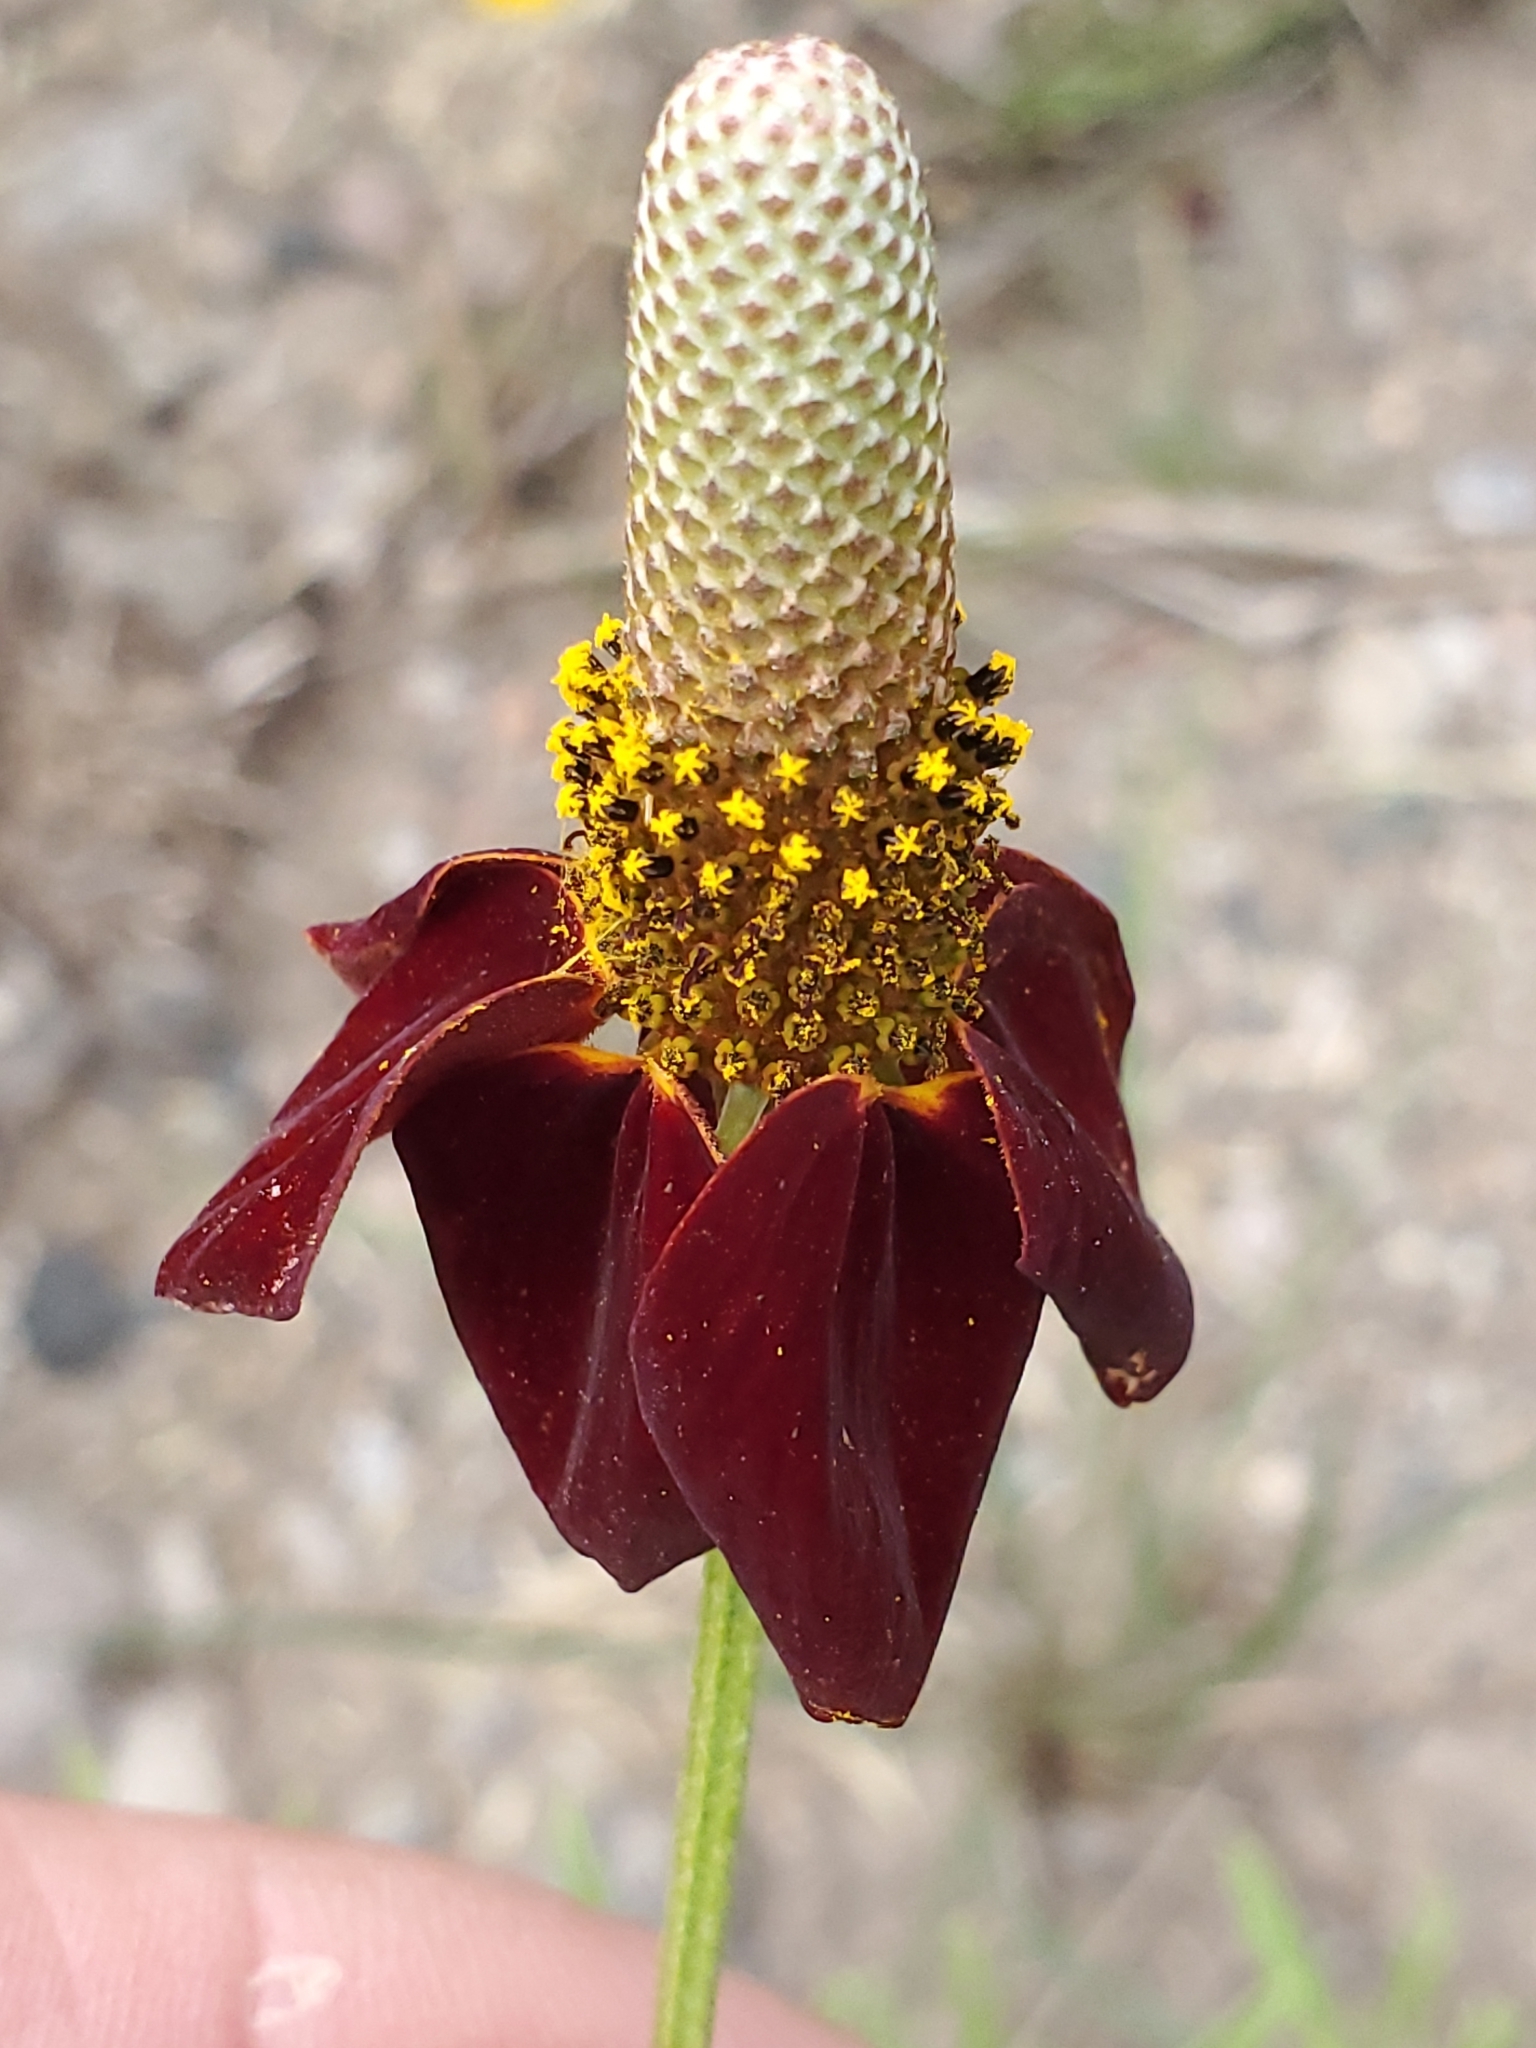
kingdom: Plantae
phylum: Tracheophyta
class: Magnoliopsida
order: Asterales
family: Asteraceae
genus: Ratibida
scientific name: Ratibida columnifera
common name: Prairie coneflower
